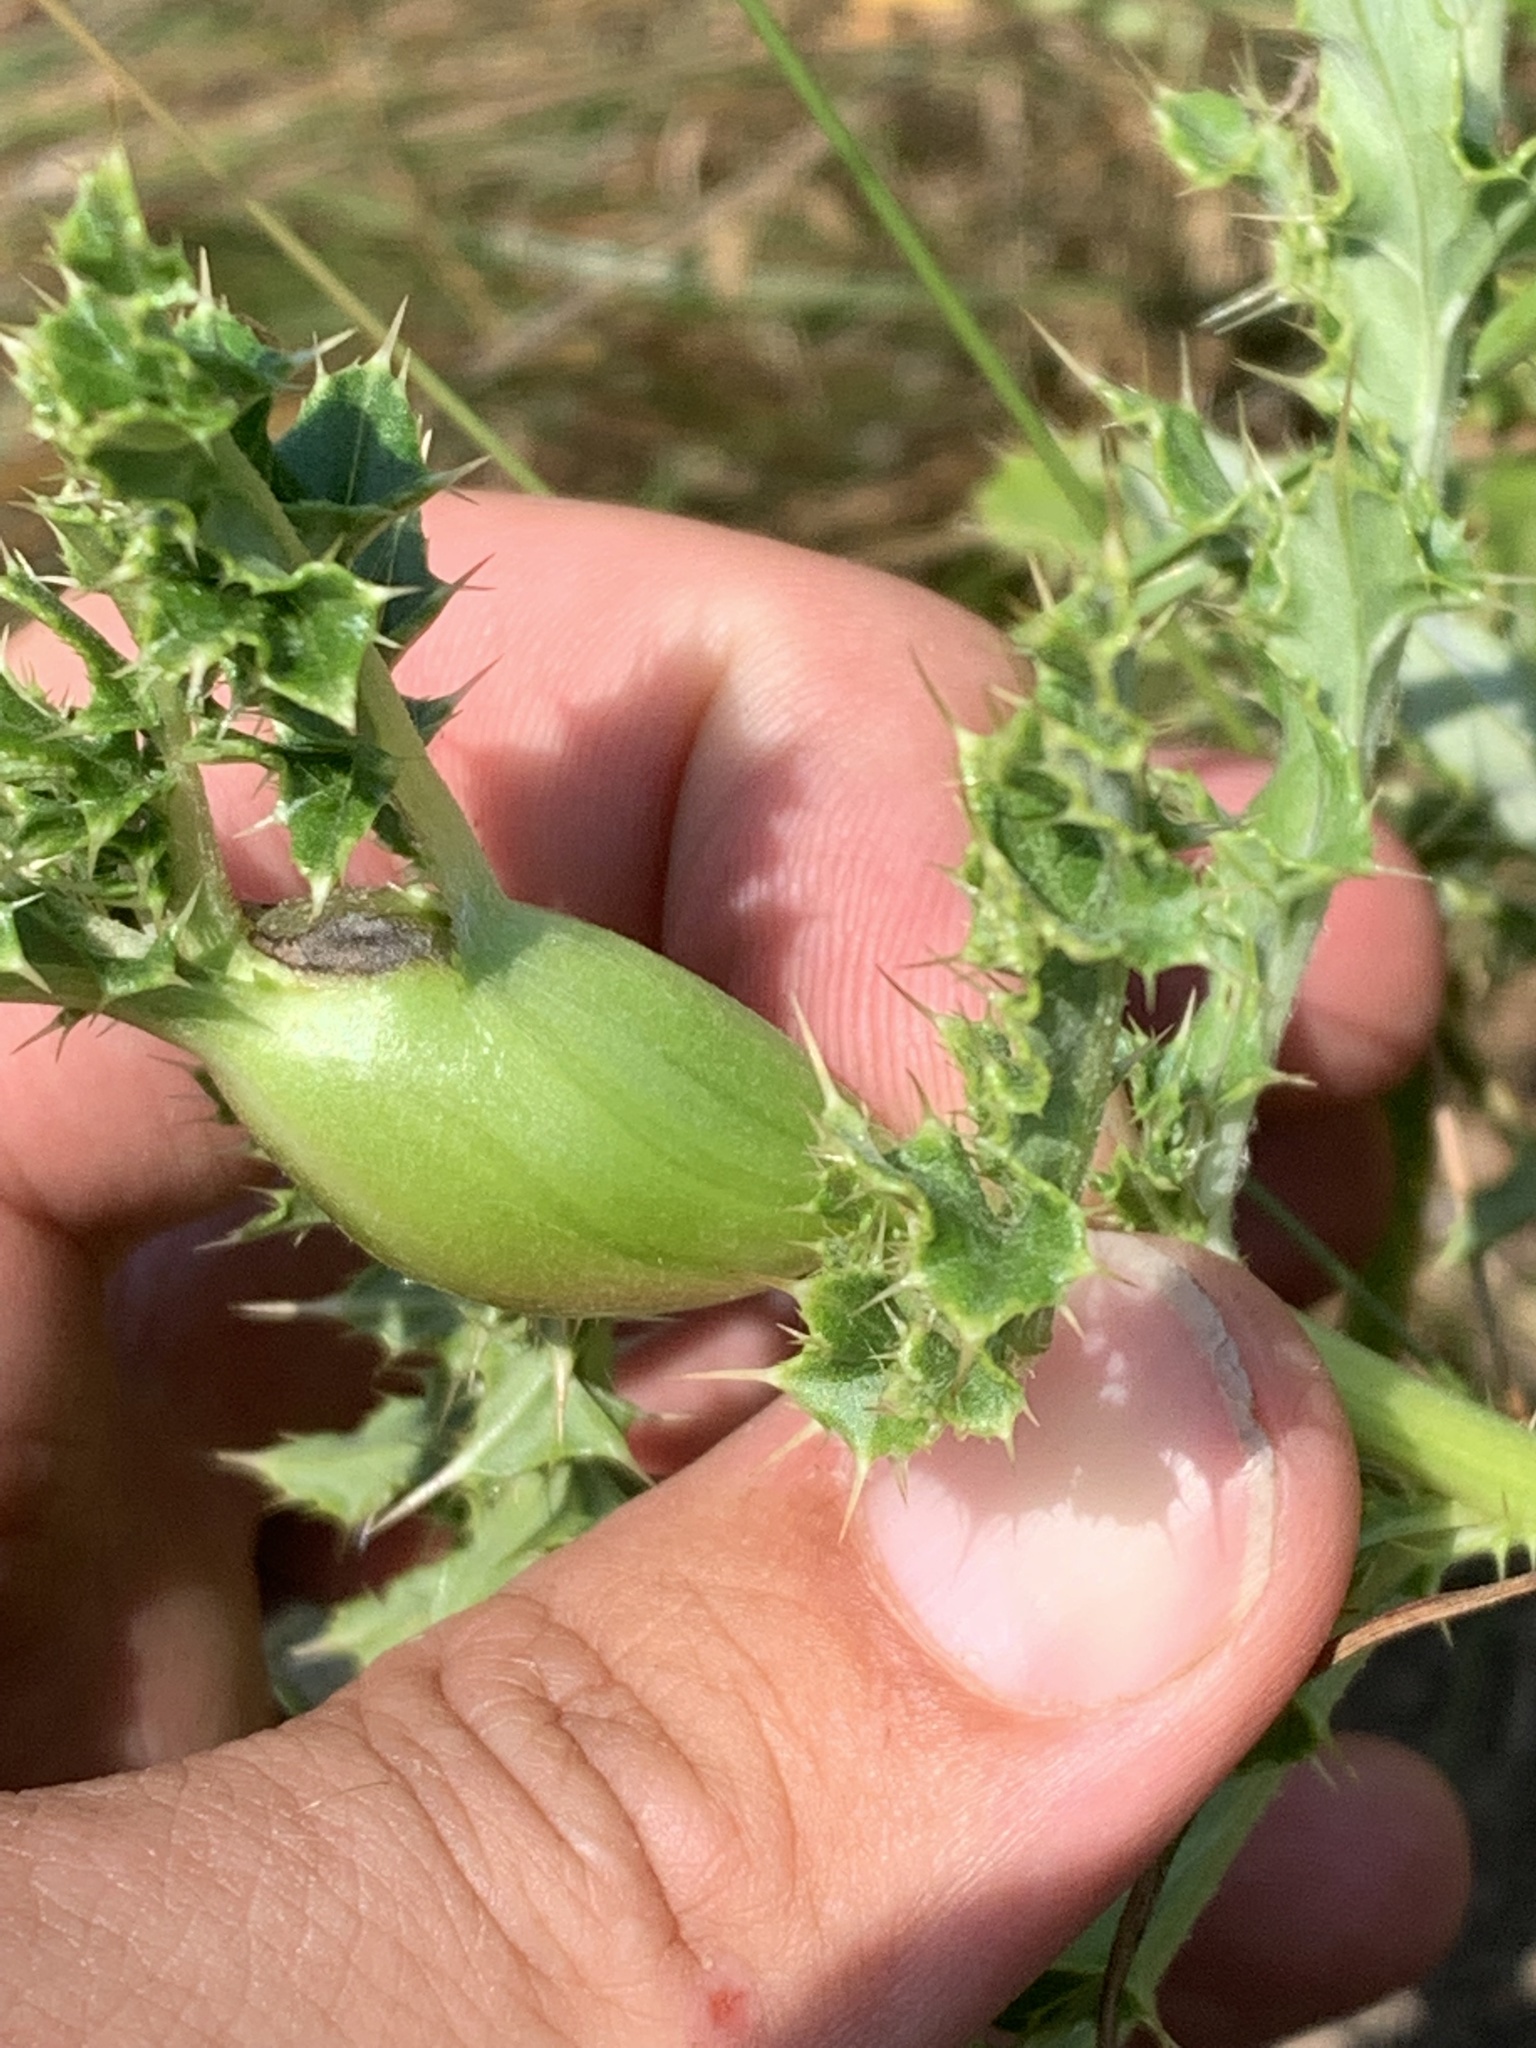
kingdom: Animalia
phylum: Arthropoda
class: Insecta
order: Diptera
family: Tephritidae
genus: Urophora
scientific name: Urophora cardui
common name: Fruit fly
